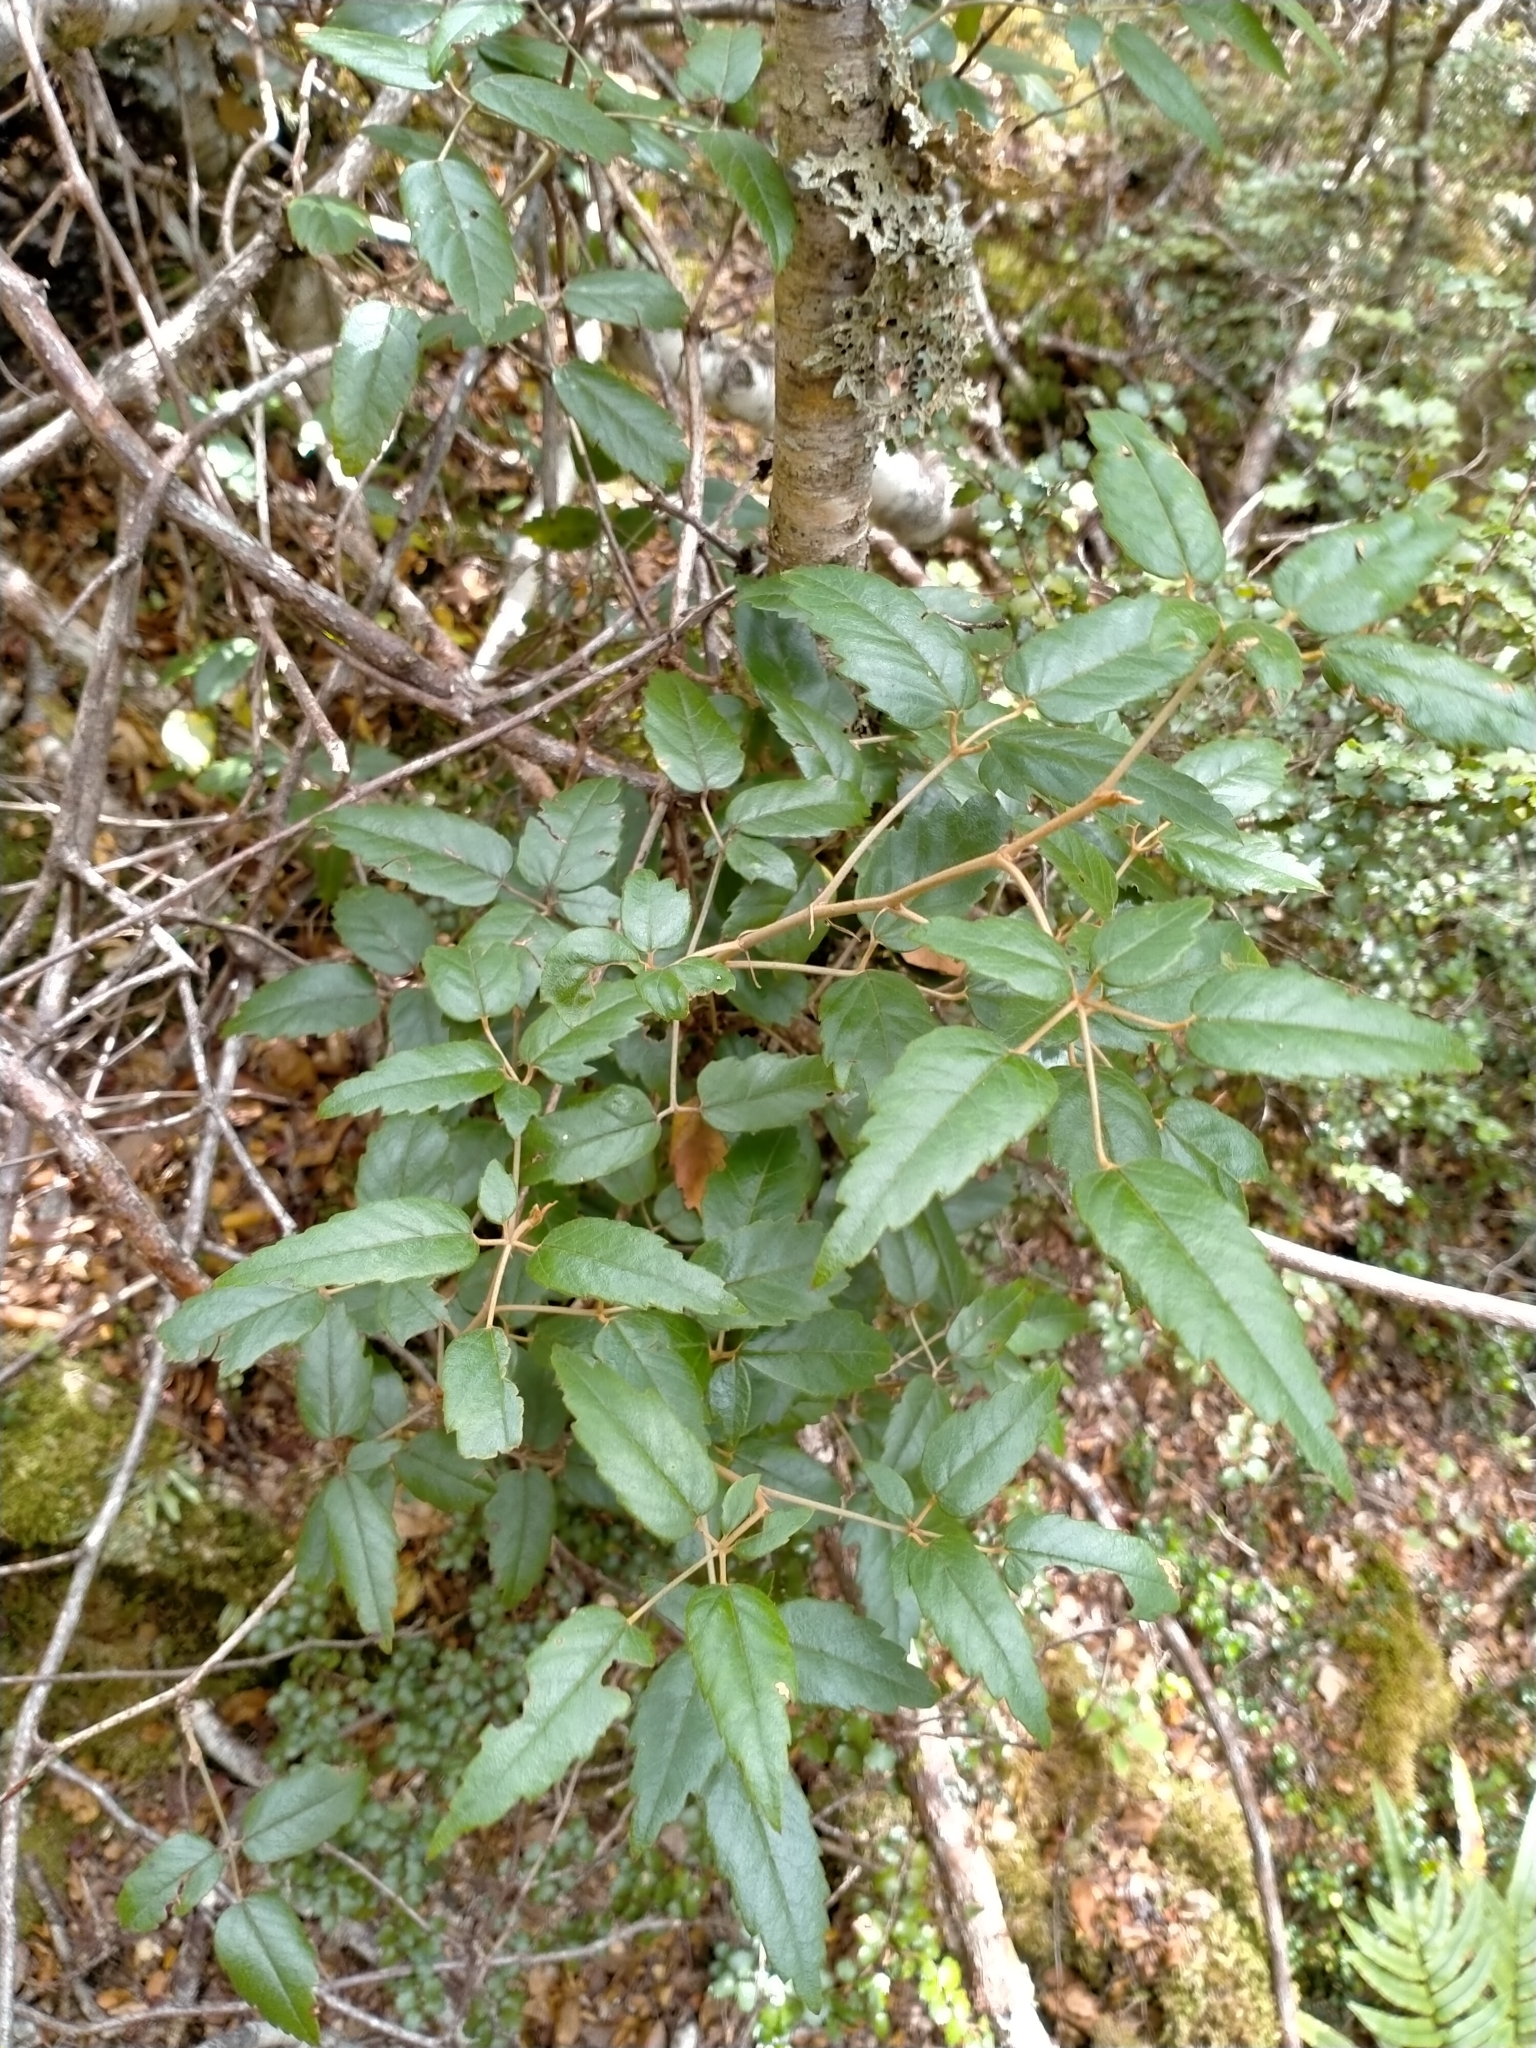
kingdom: Plantae
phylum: Tracheophyta
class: Magnoliopsida
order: Rosales
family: Rosaceae
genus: Rubus
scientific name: Rubus schmidelioides
